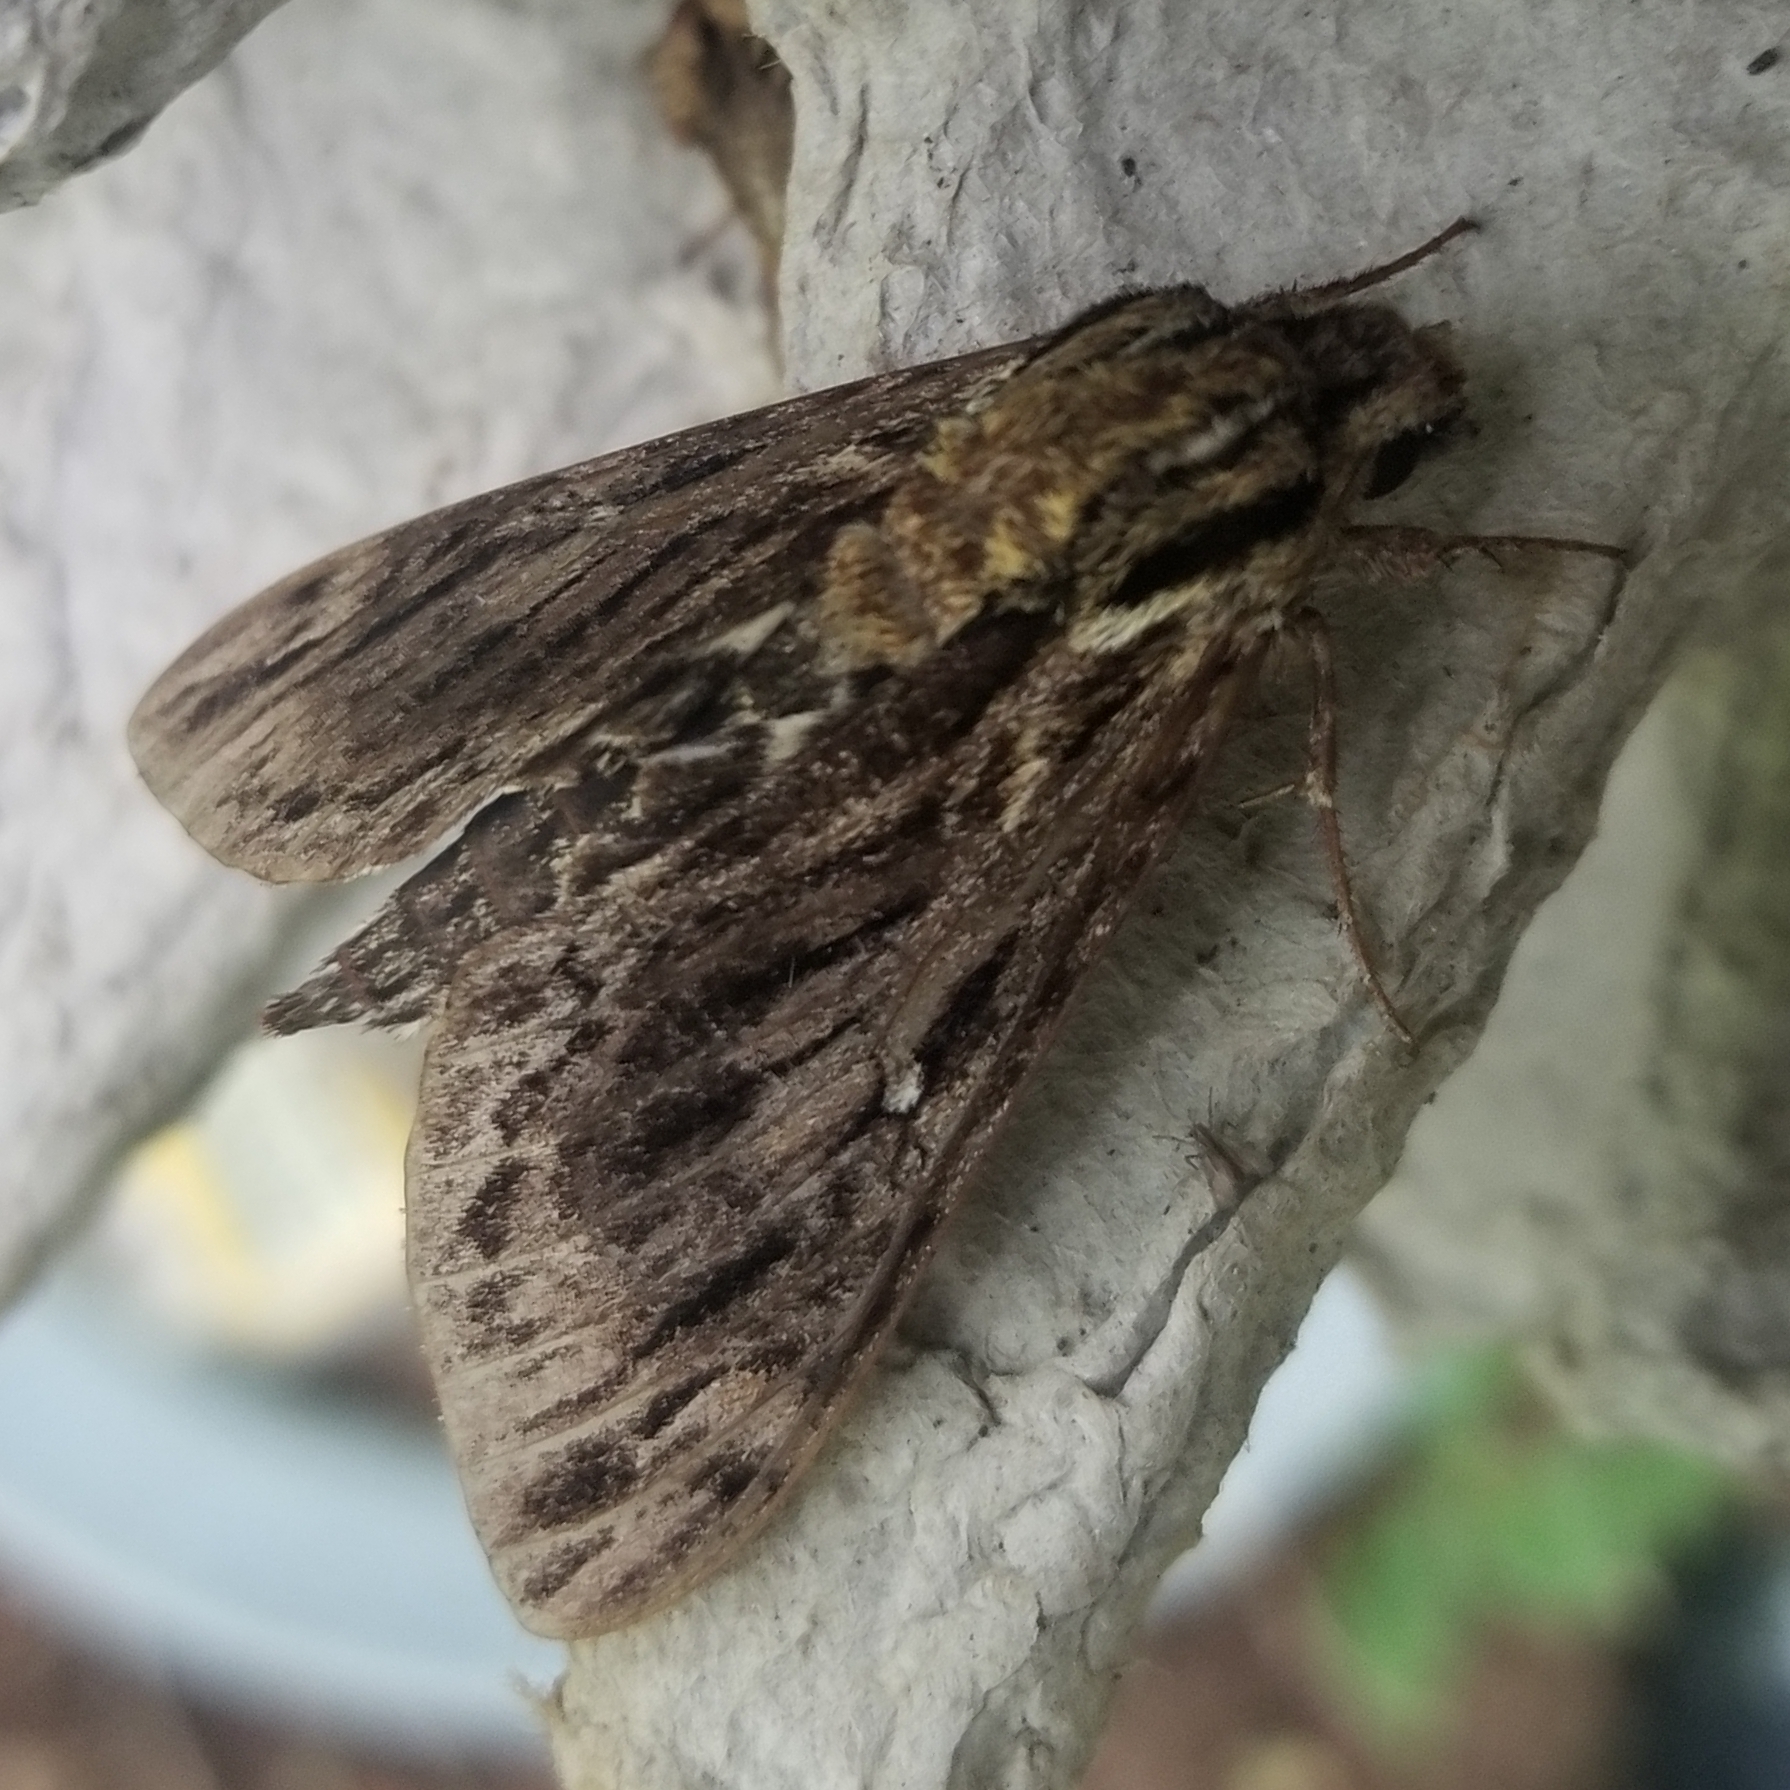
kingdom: Animalia
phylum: Arthropoda
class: Insecta
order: Lepidoptera
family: Sphingidae
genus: Lintneria
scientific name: Lintneria eremitus
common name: Hermit sphinx
